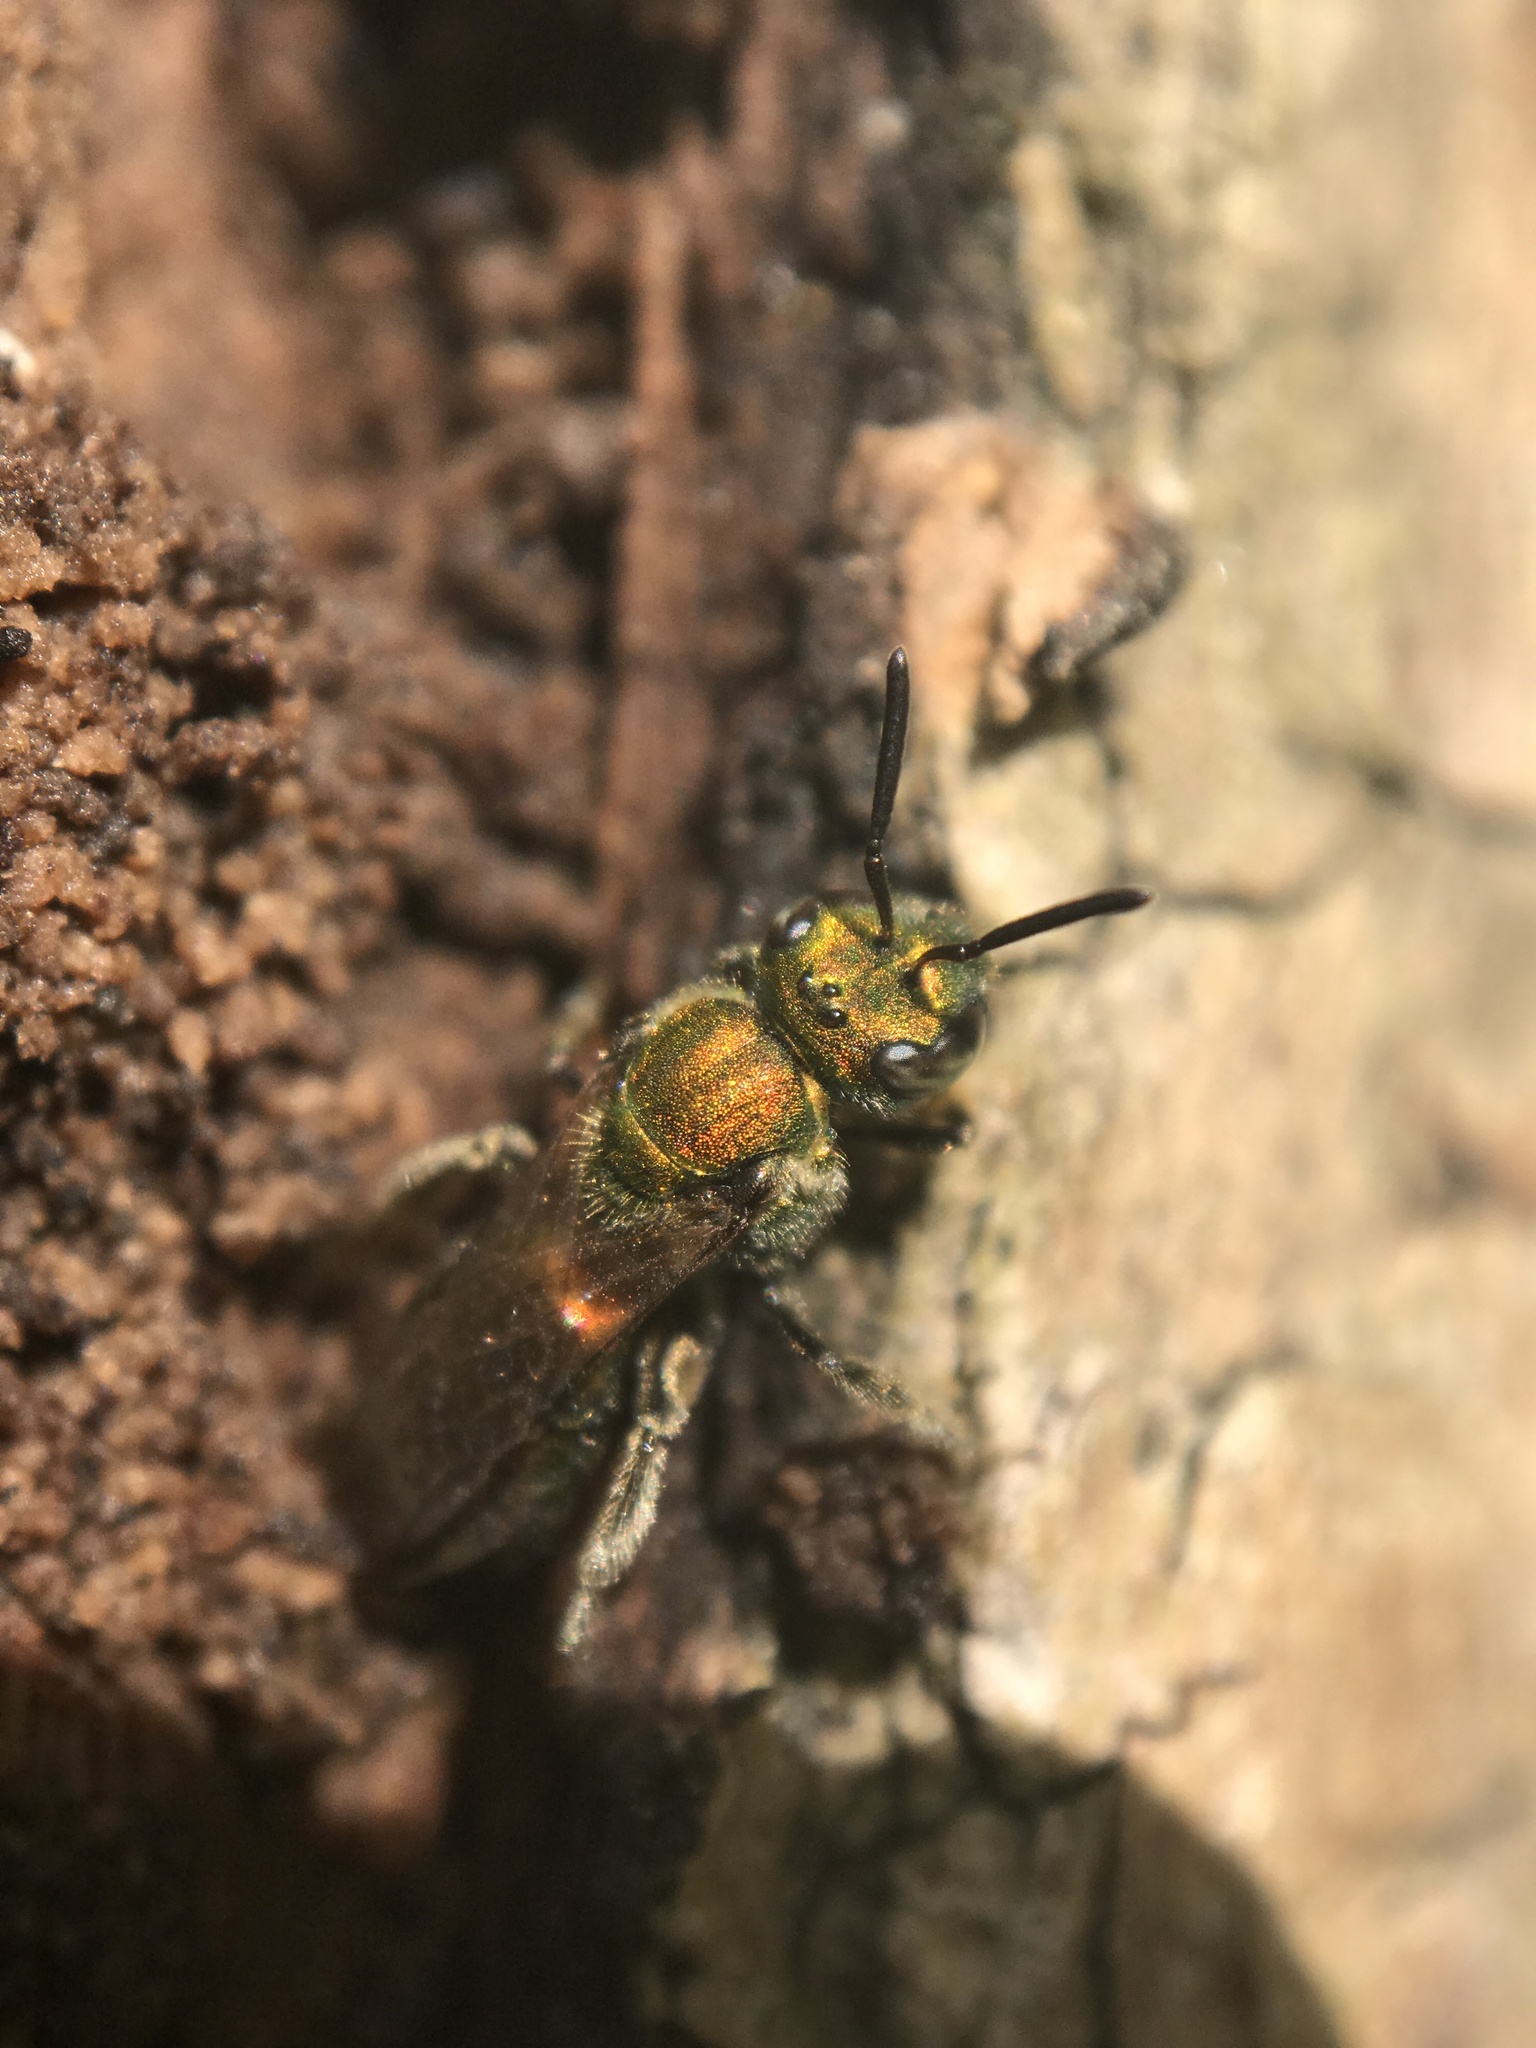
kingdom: Animalia
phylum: Arthropoda
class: Insecta
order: Hymenoptera
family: Halictidae
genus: Augochlora
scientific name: Augochlora pura
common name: Pure green sweat bee
